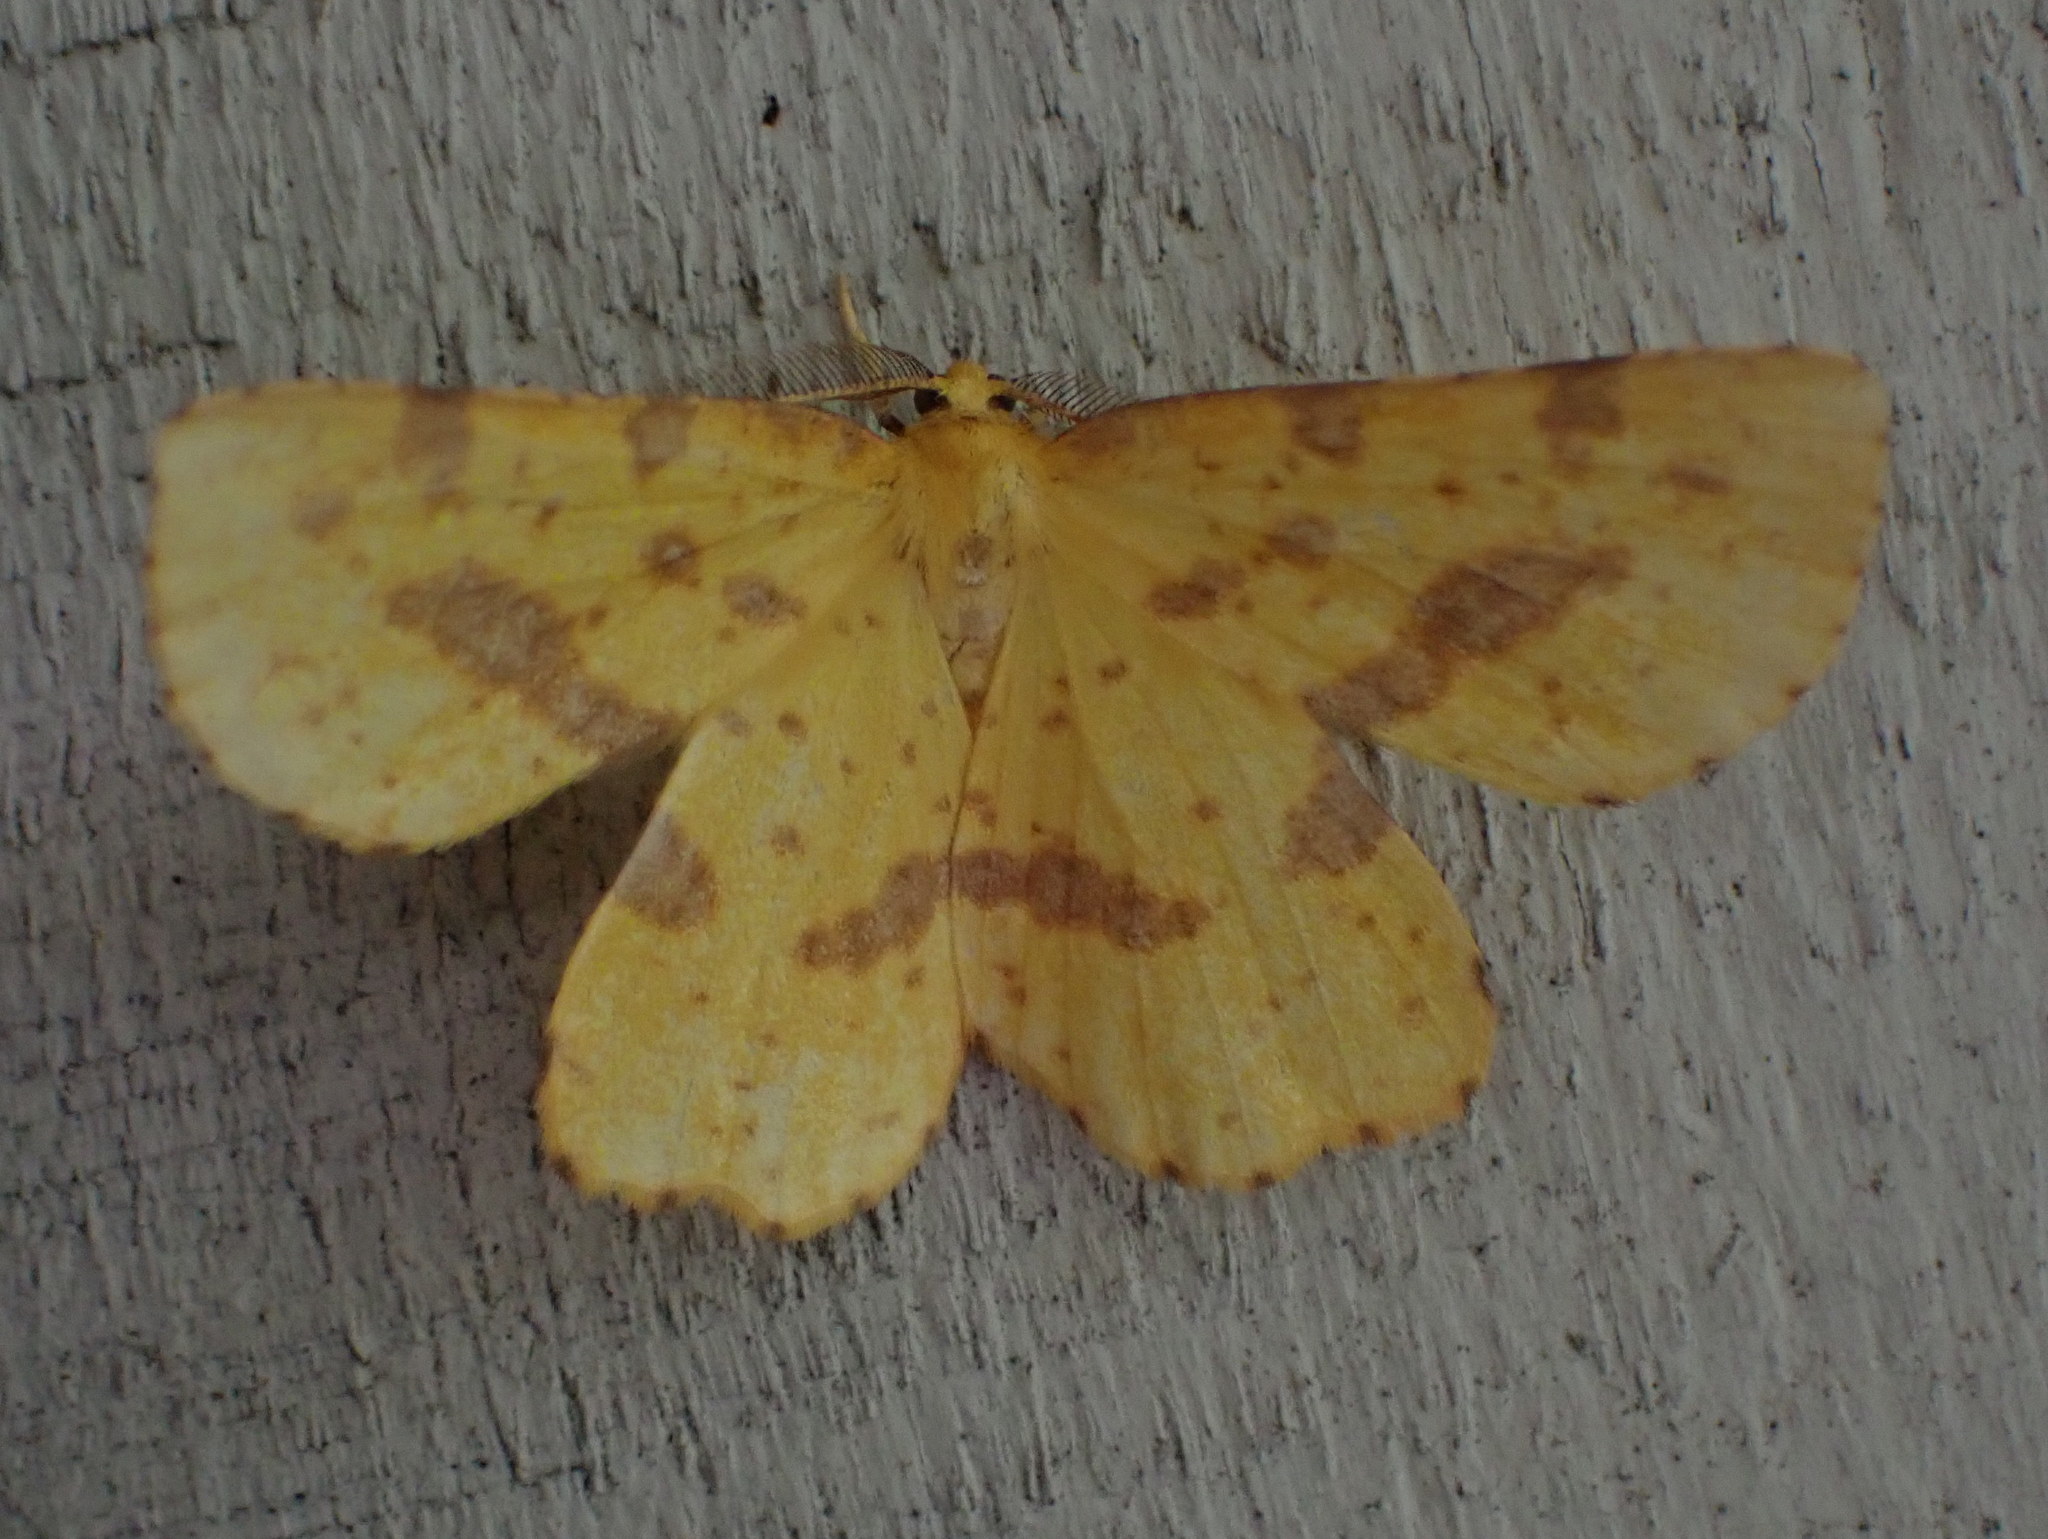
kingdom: Animalia
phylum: Arthropoda
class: Insecta
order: Lepidoptera
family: Geometridae
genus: Xanthotype
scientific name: Xanthotype
